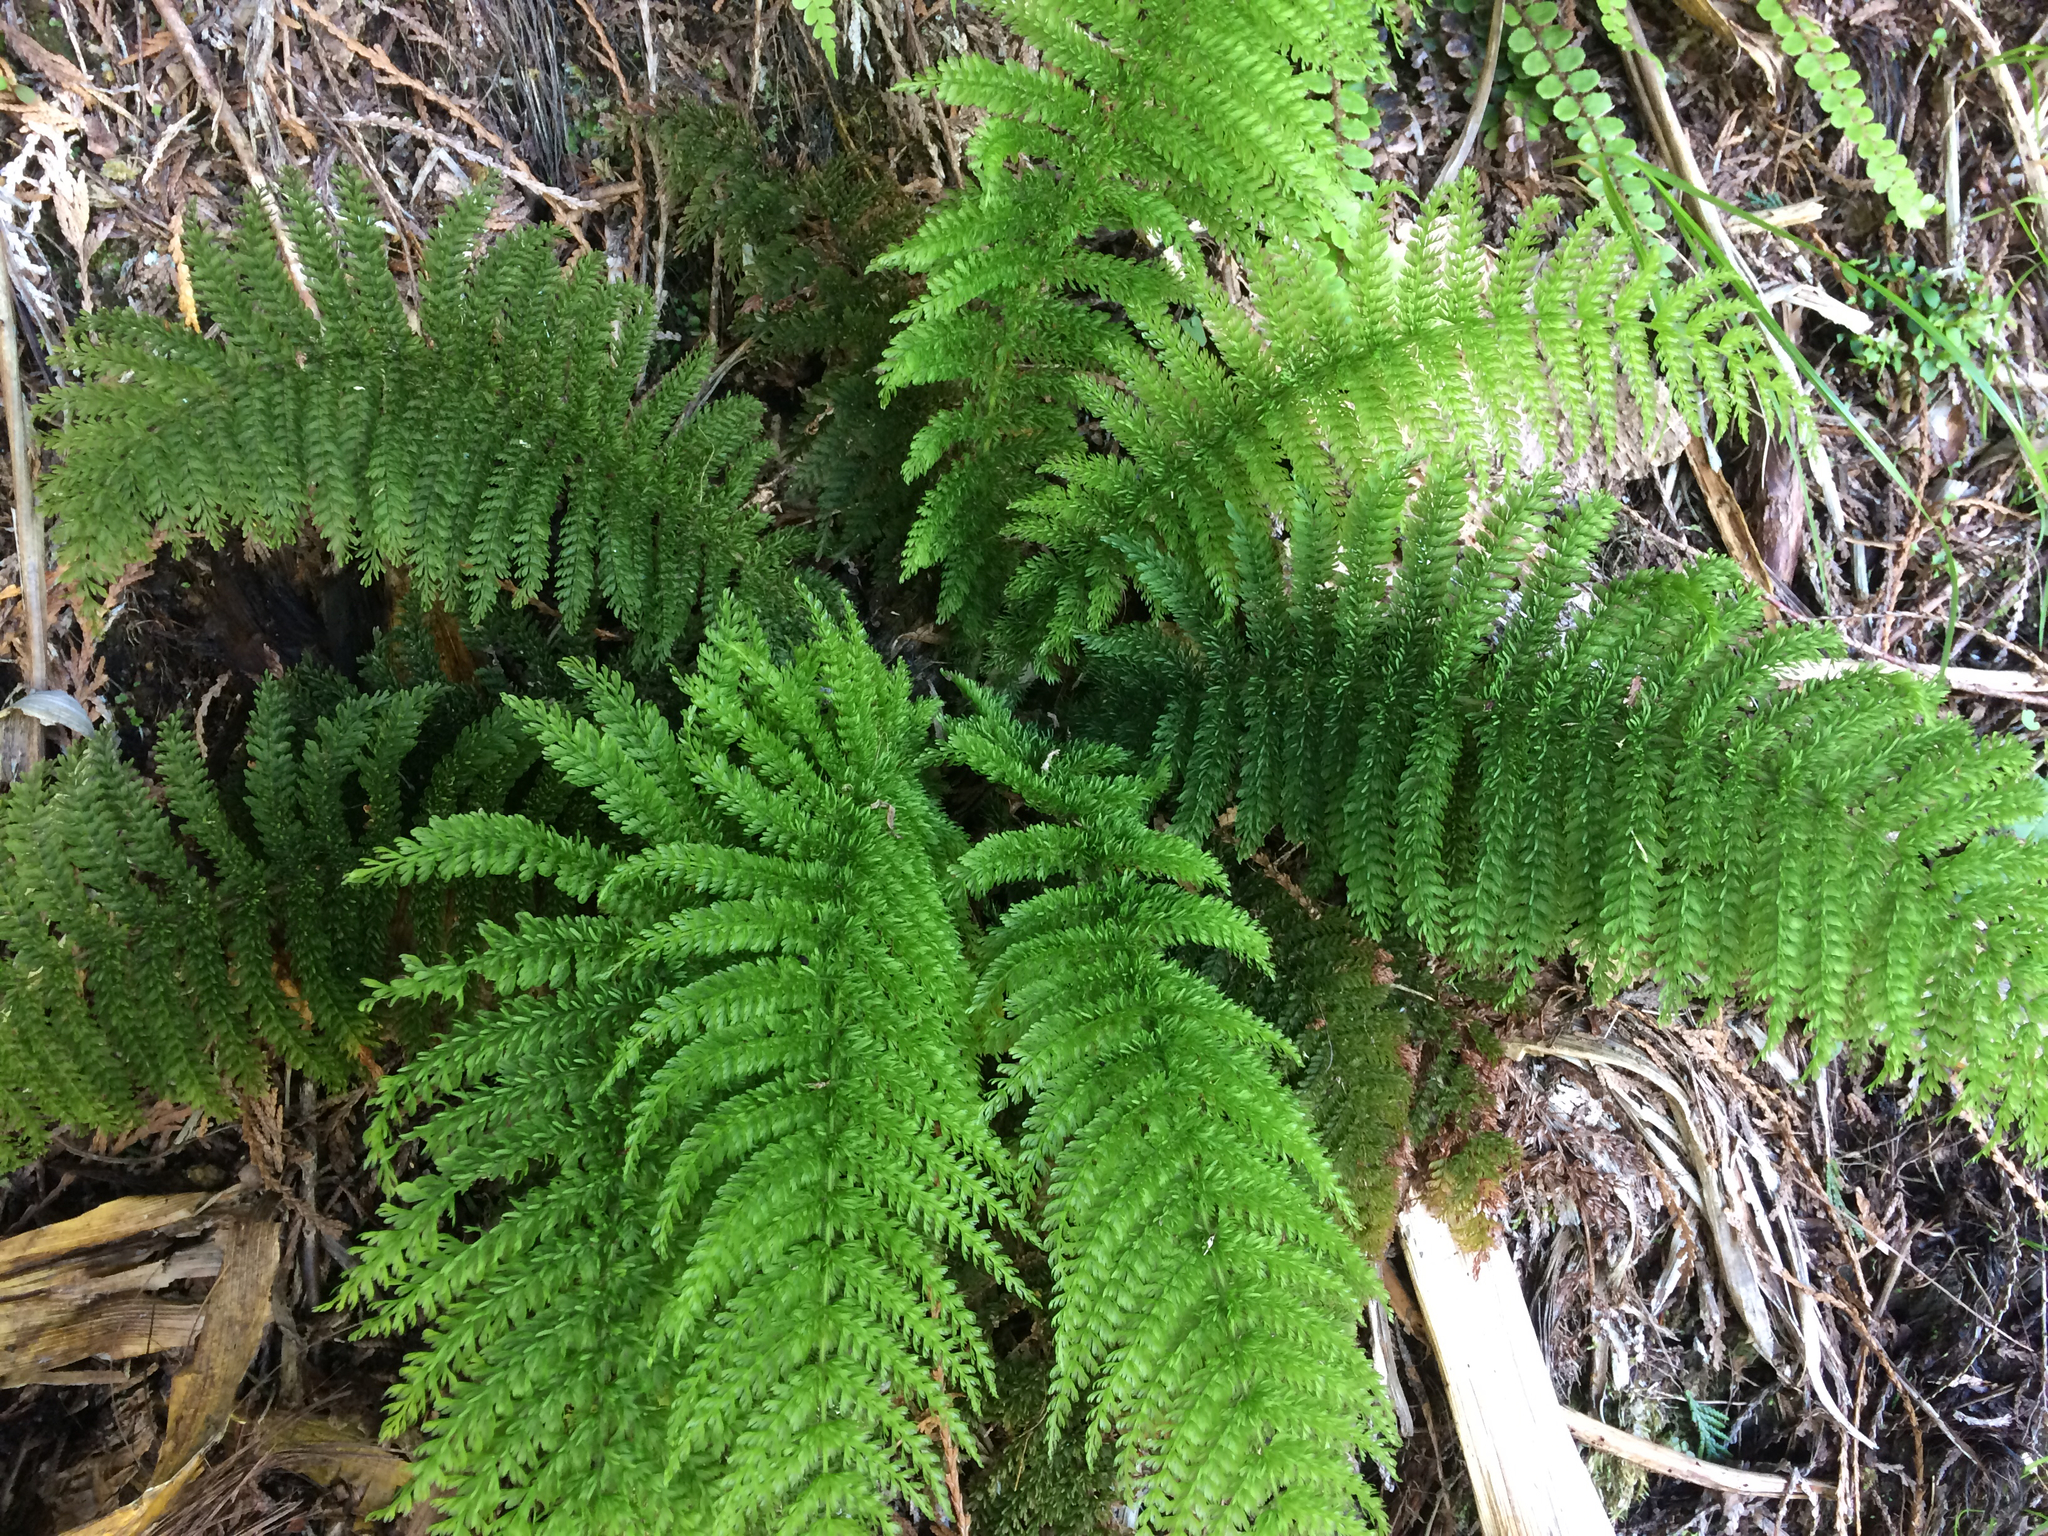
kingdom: Plantae
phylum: Tracheophyta
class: Polypodiopsida
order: Osmundales
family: Osmundaceae
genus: Leptopteris
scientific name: Leptopteris superba
